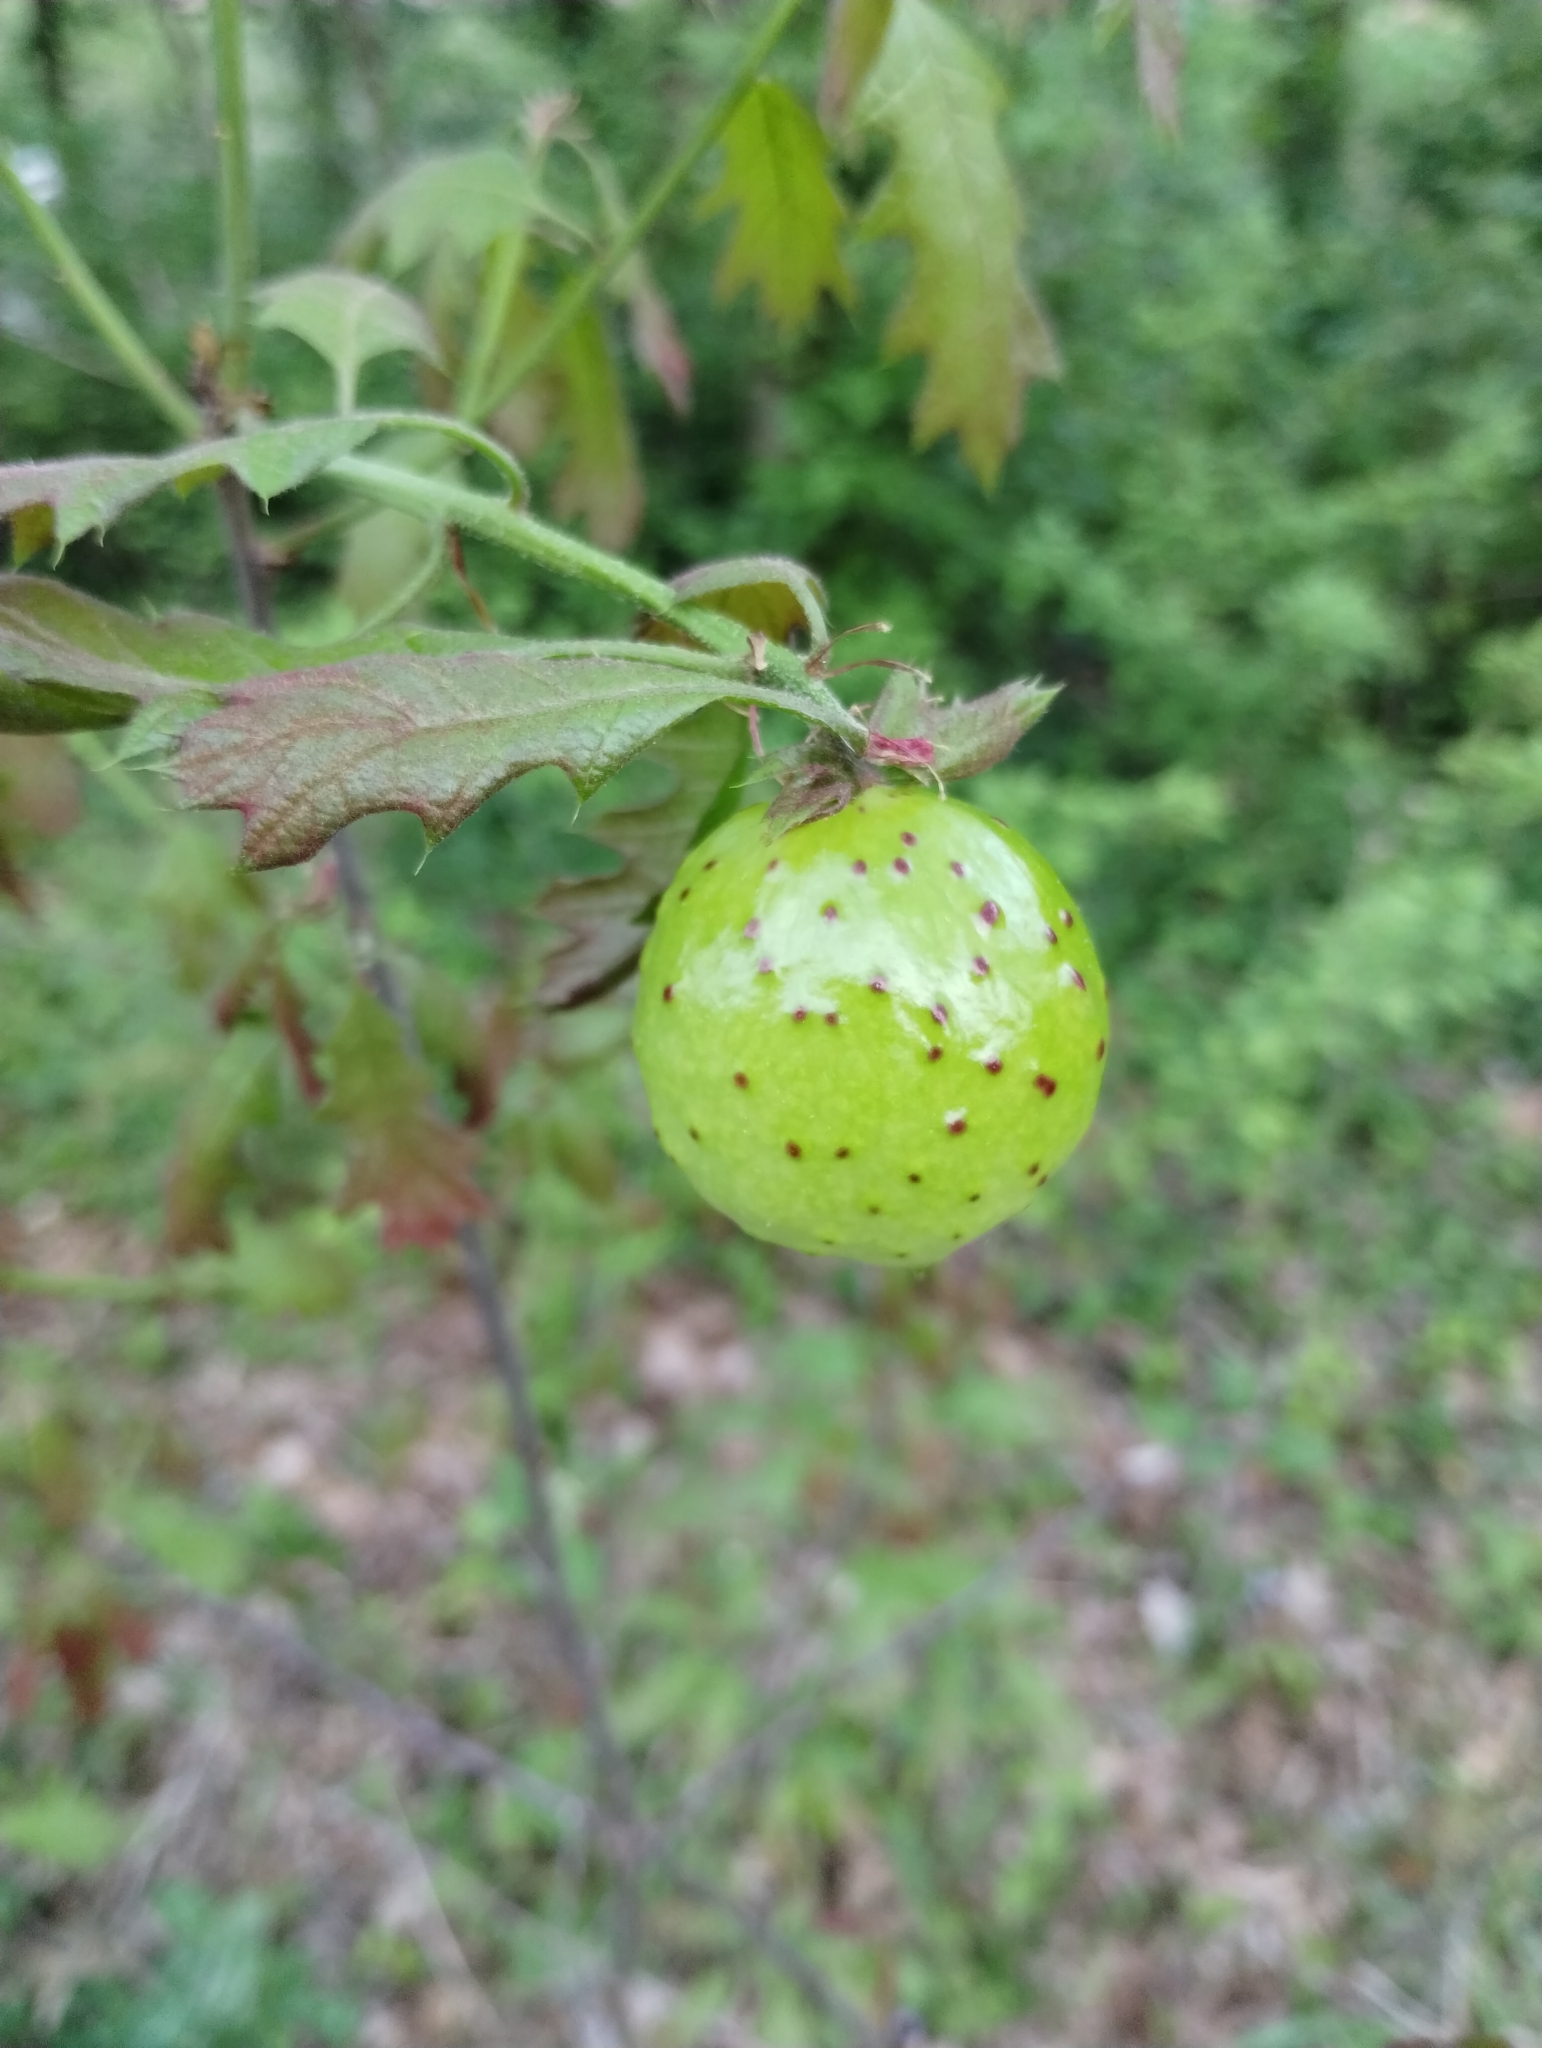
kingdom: Animalia
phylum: Arthropoda
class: Insecta
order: Hymenoptera
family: Cynipidae
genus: Amphibolips
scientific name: Amphibolips
